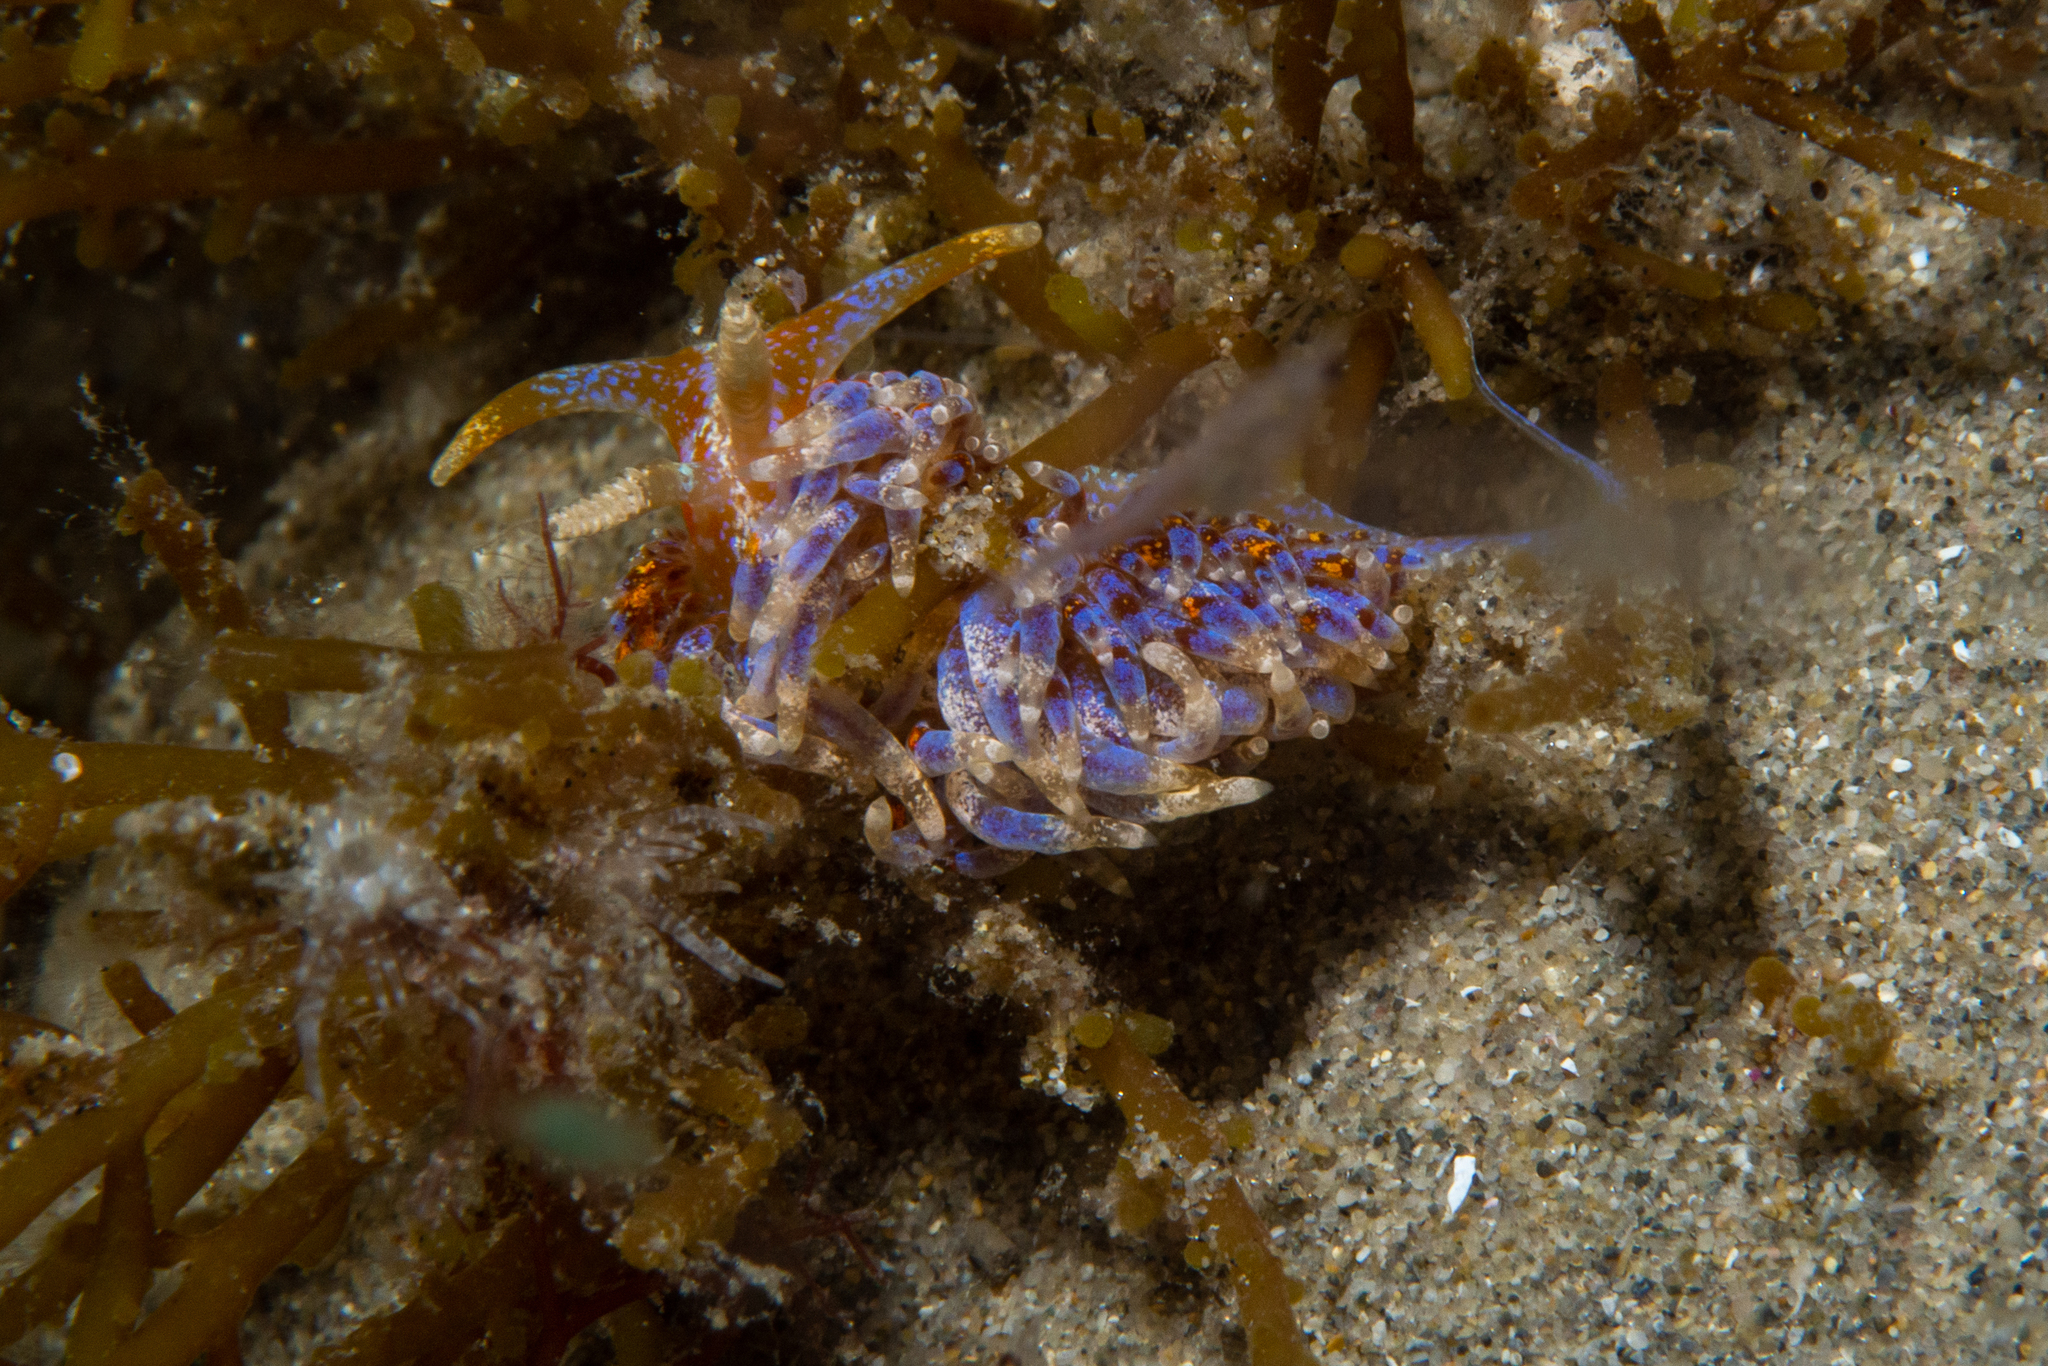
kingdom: Animalia
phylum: Mollusca
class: Gastropoda
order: Nudibranchia
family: Facelinidae
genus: Austraeolis
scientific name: Austraeolis ornata
